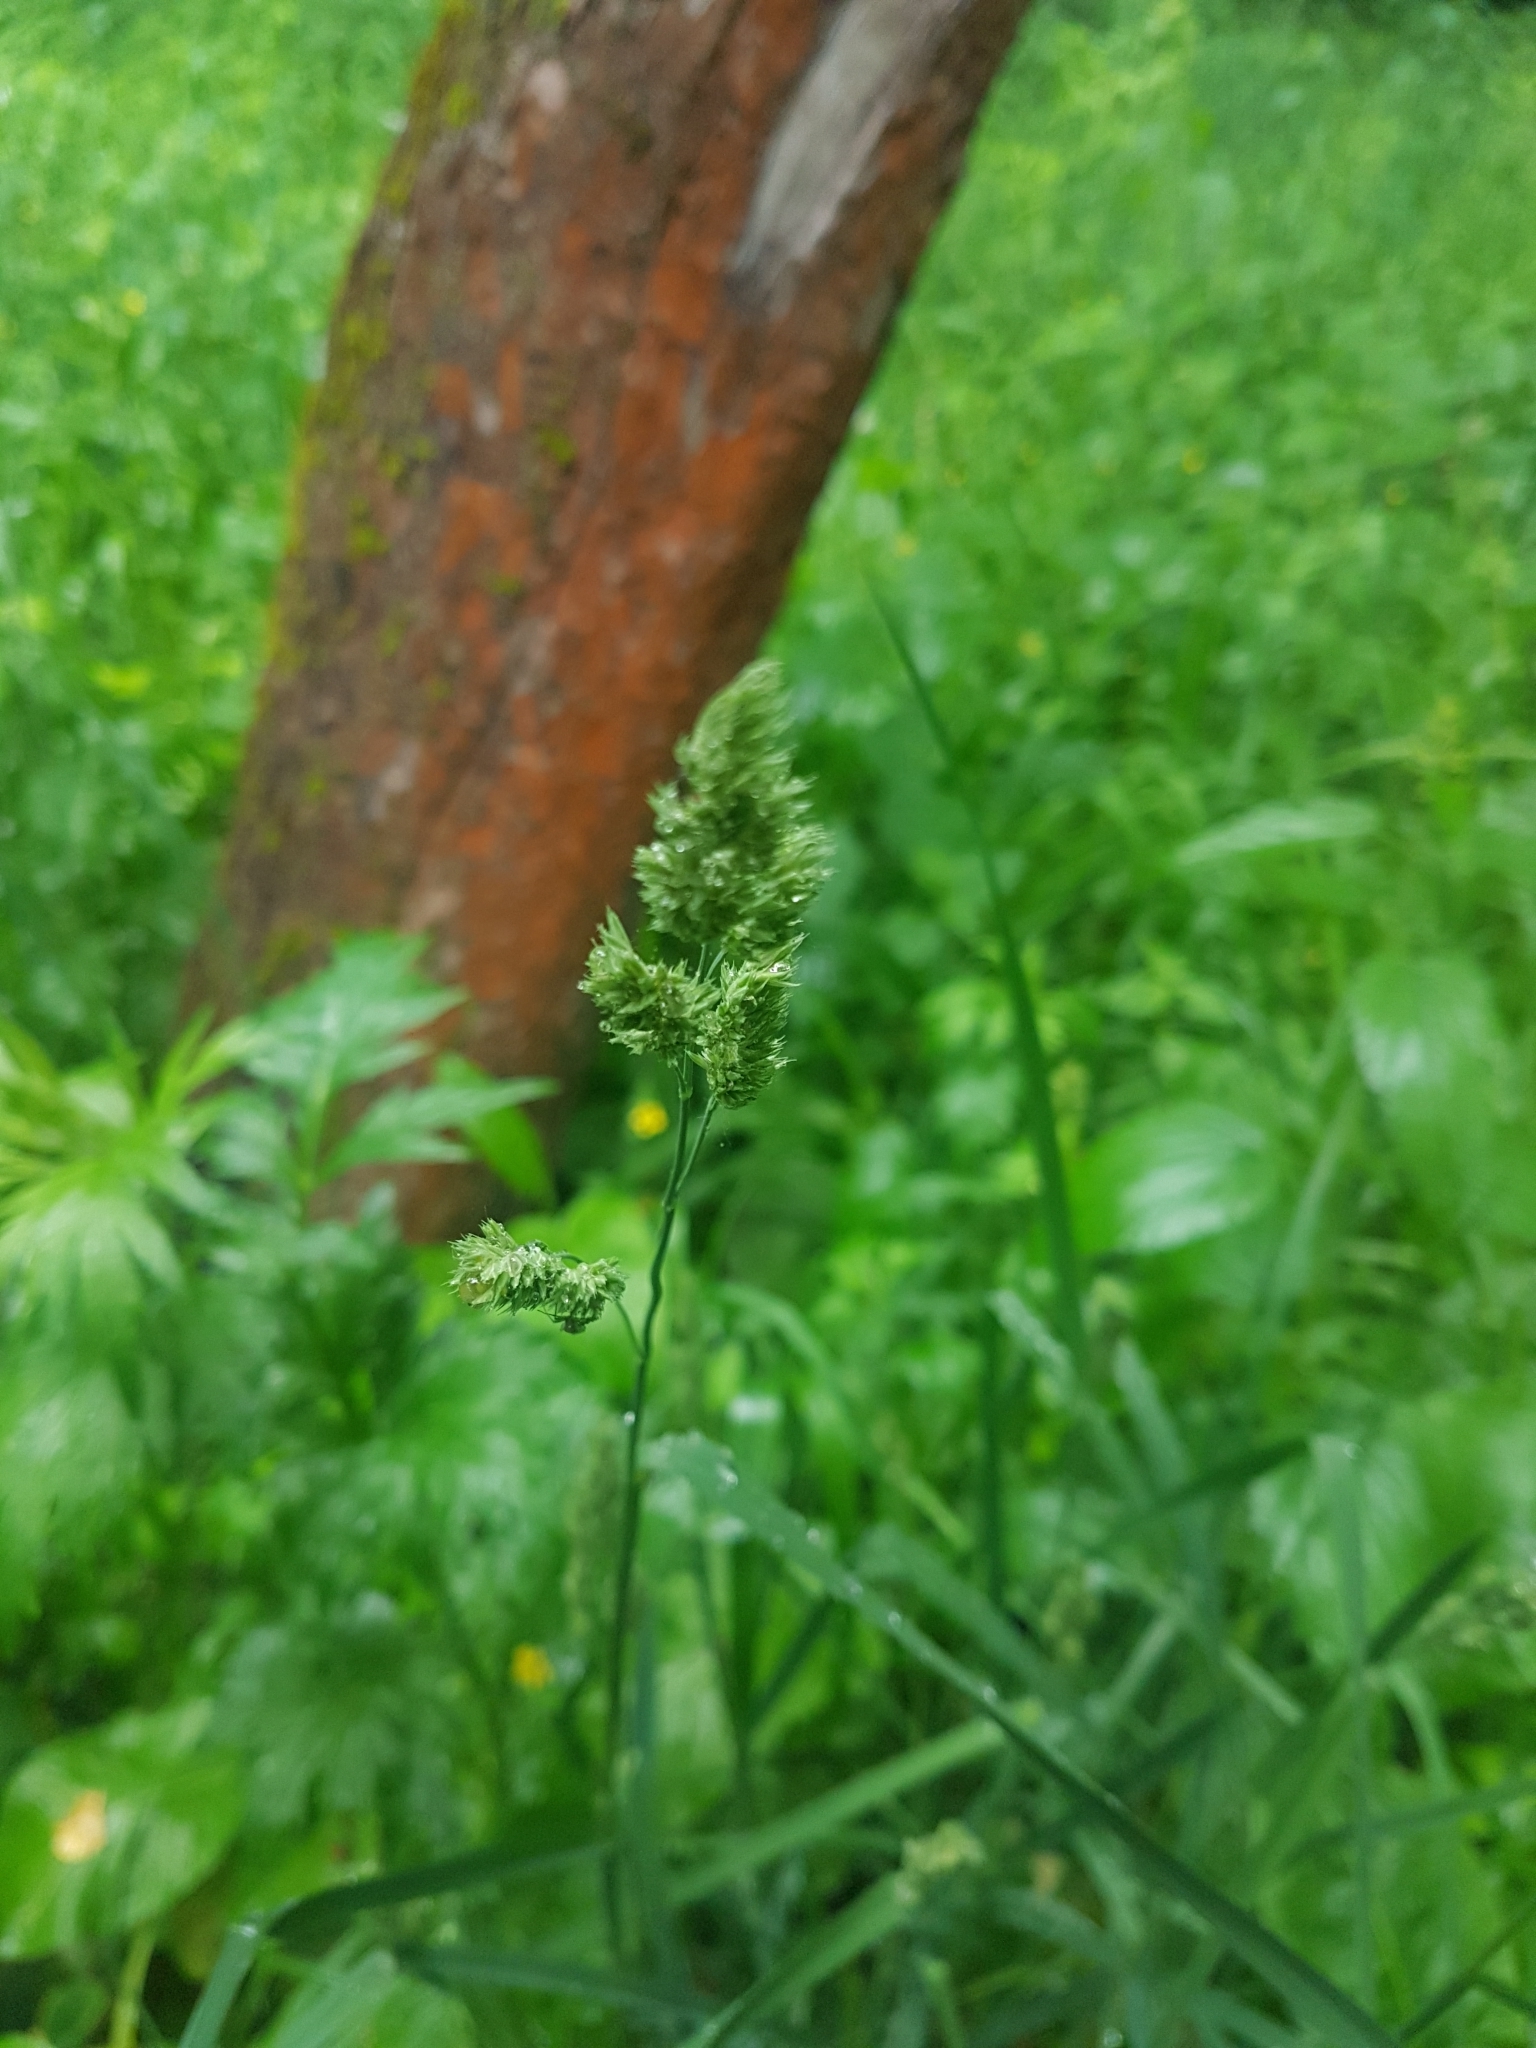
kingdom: Plantae
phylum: Tracheophyta
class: Liliopsida
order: Poales
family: Poaceae
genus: Dactylis
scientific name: Dactylis glomerata
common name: Orchardgrass
